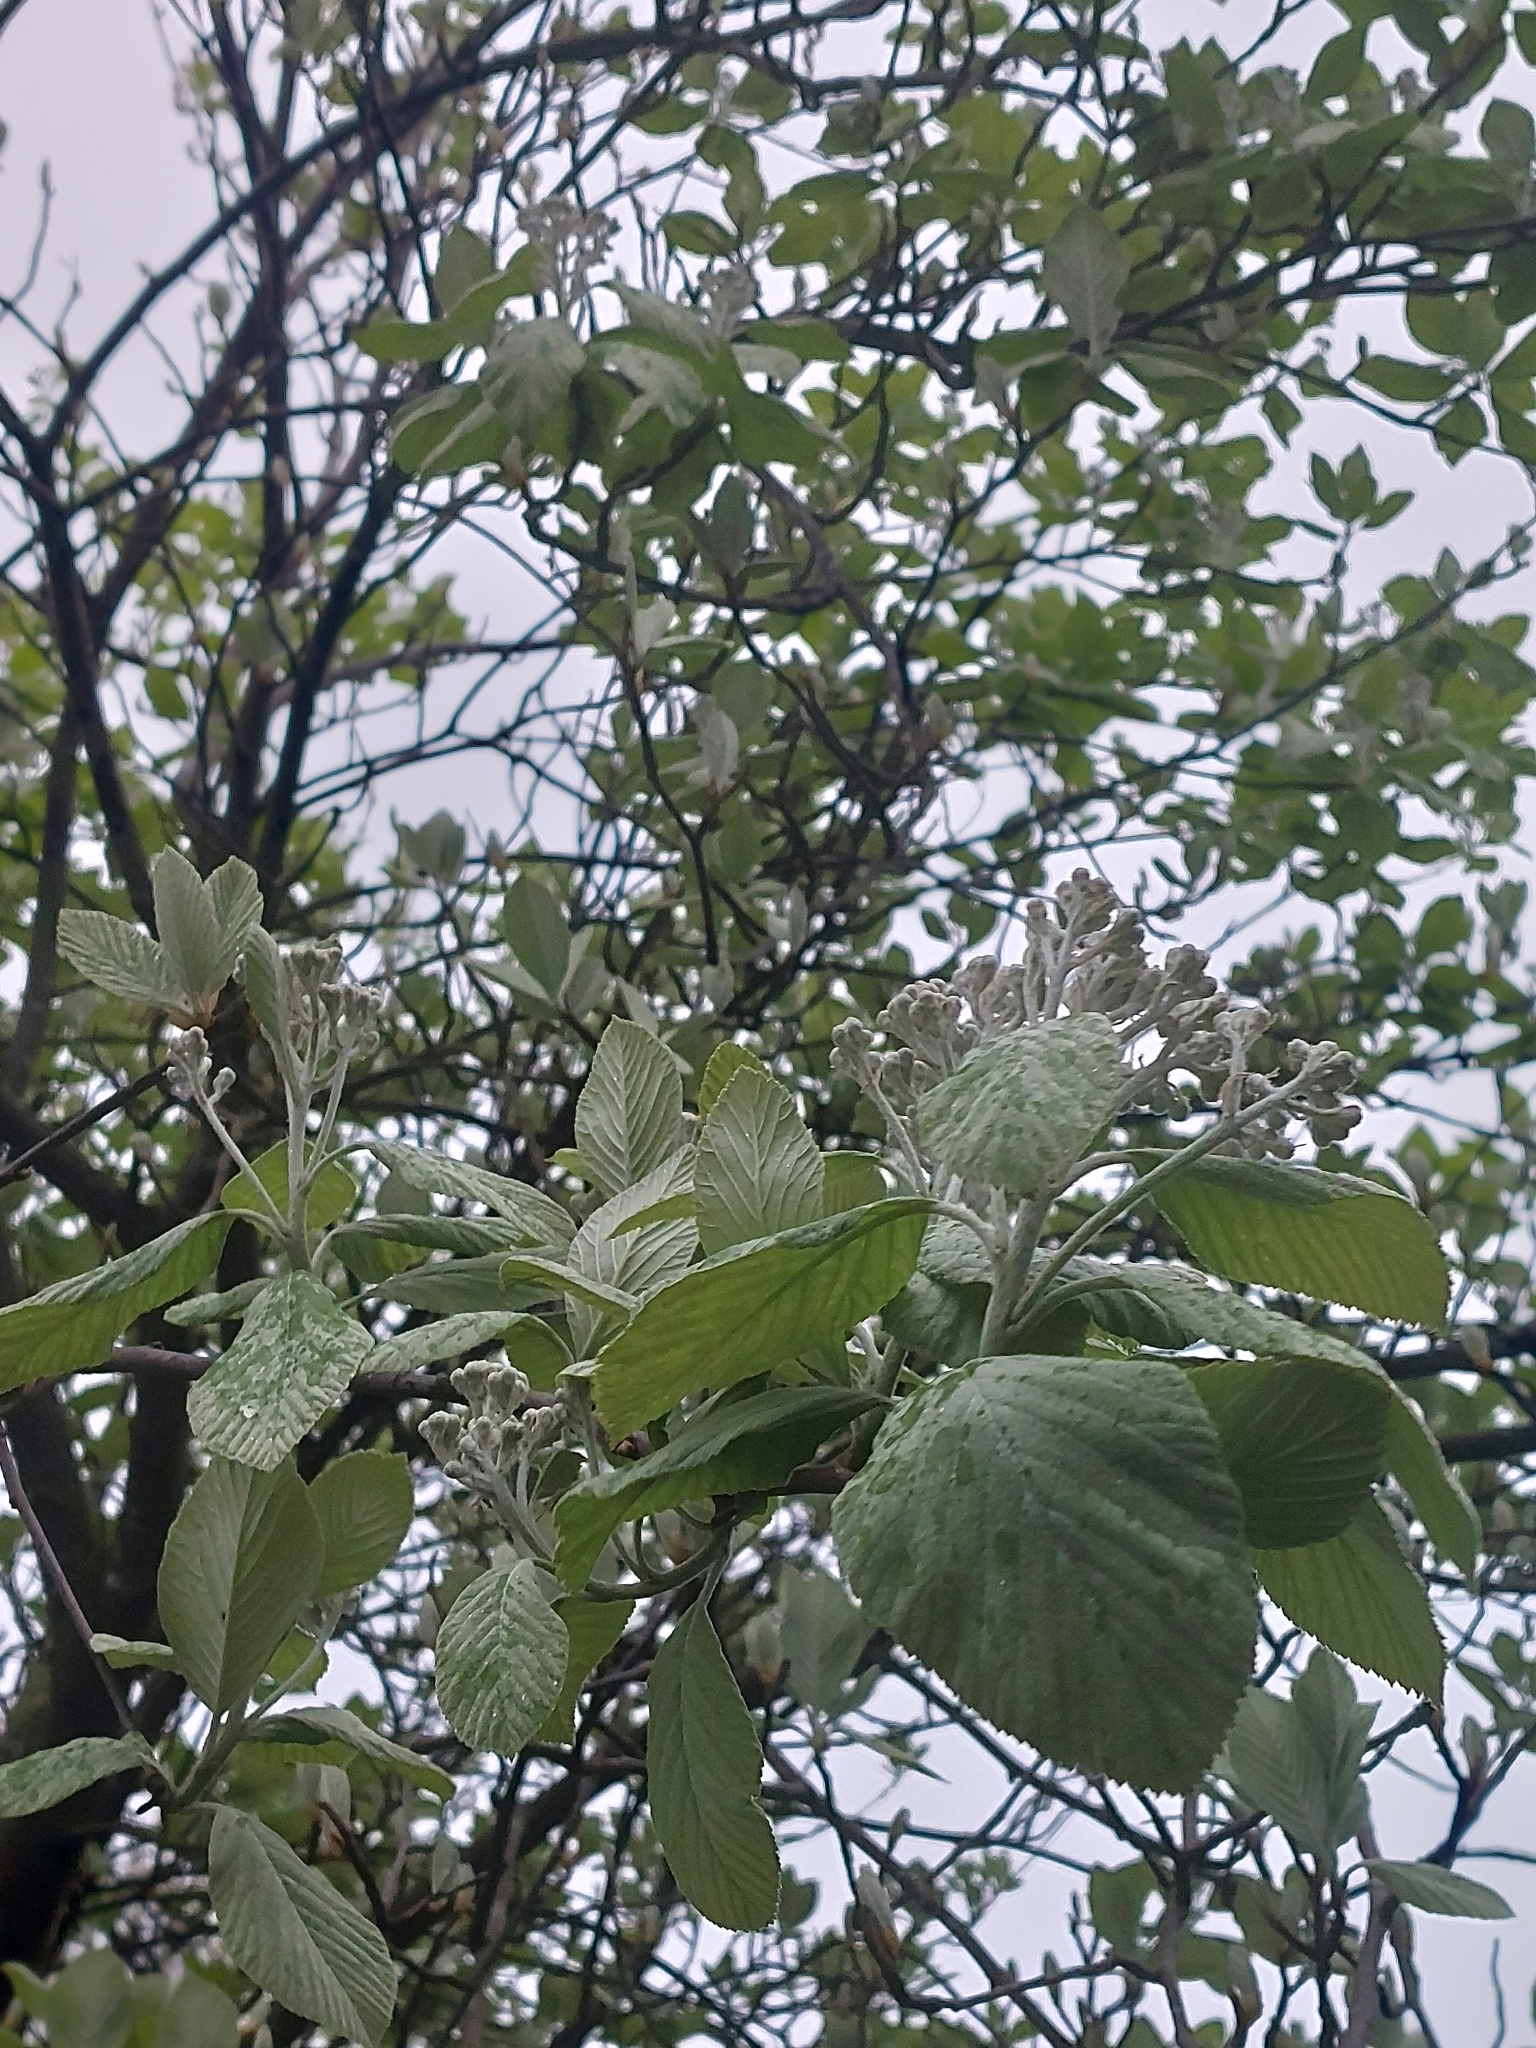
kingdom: Plantae
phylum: Tracheophyta
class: Magnoliopsida
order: Rosales
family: Rosaceae
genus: Aria
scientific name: Aria edulis
